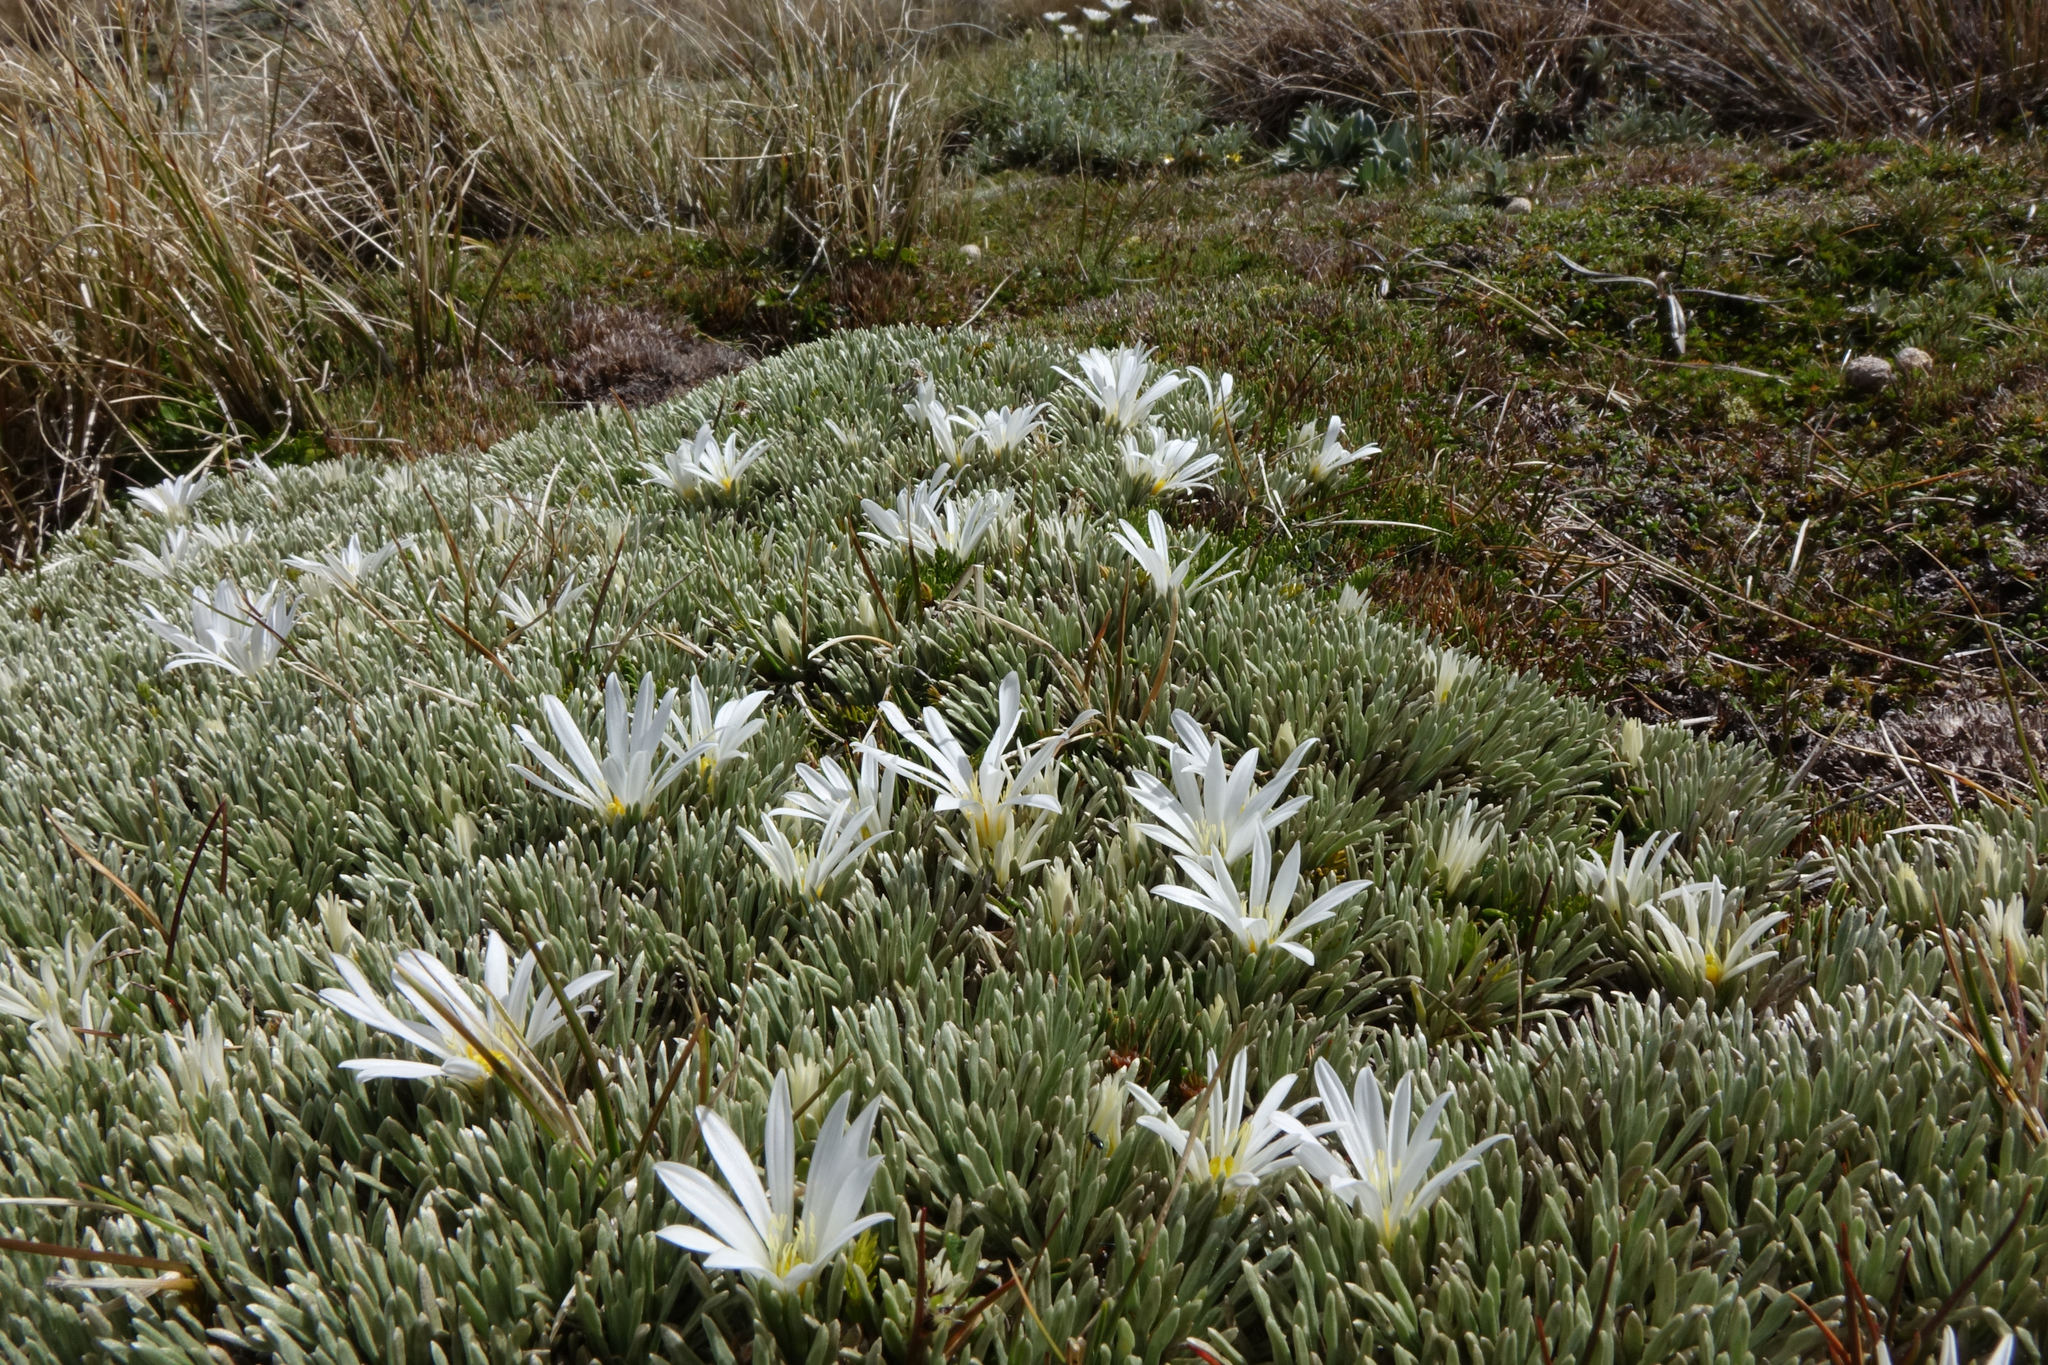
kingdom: Plantae
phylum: Tracheophyta
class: Magnoliopsida
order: Asterales
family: Asteraceae
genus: Celmisia
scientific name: Celmisia sessiliflora
